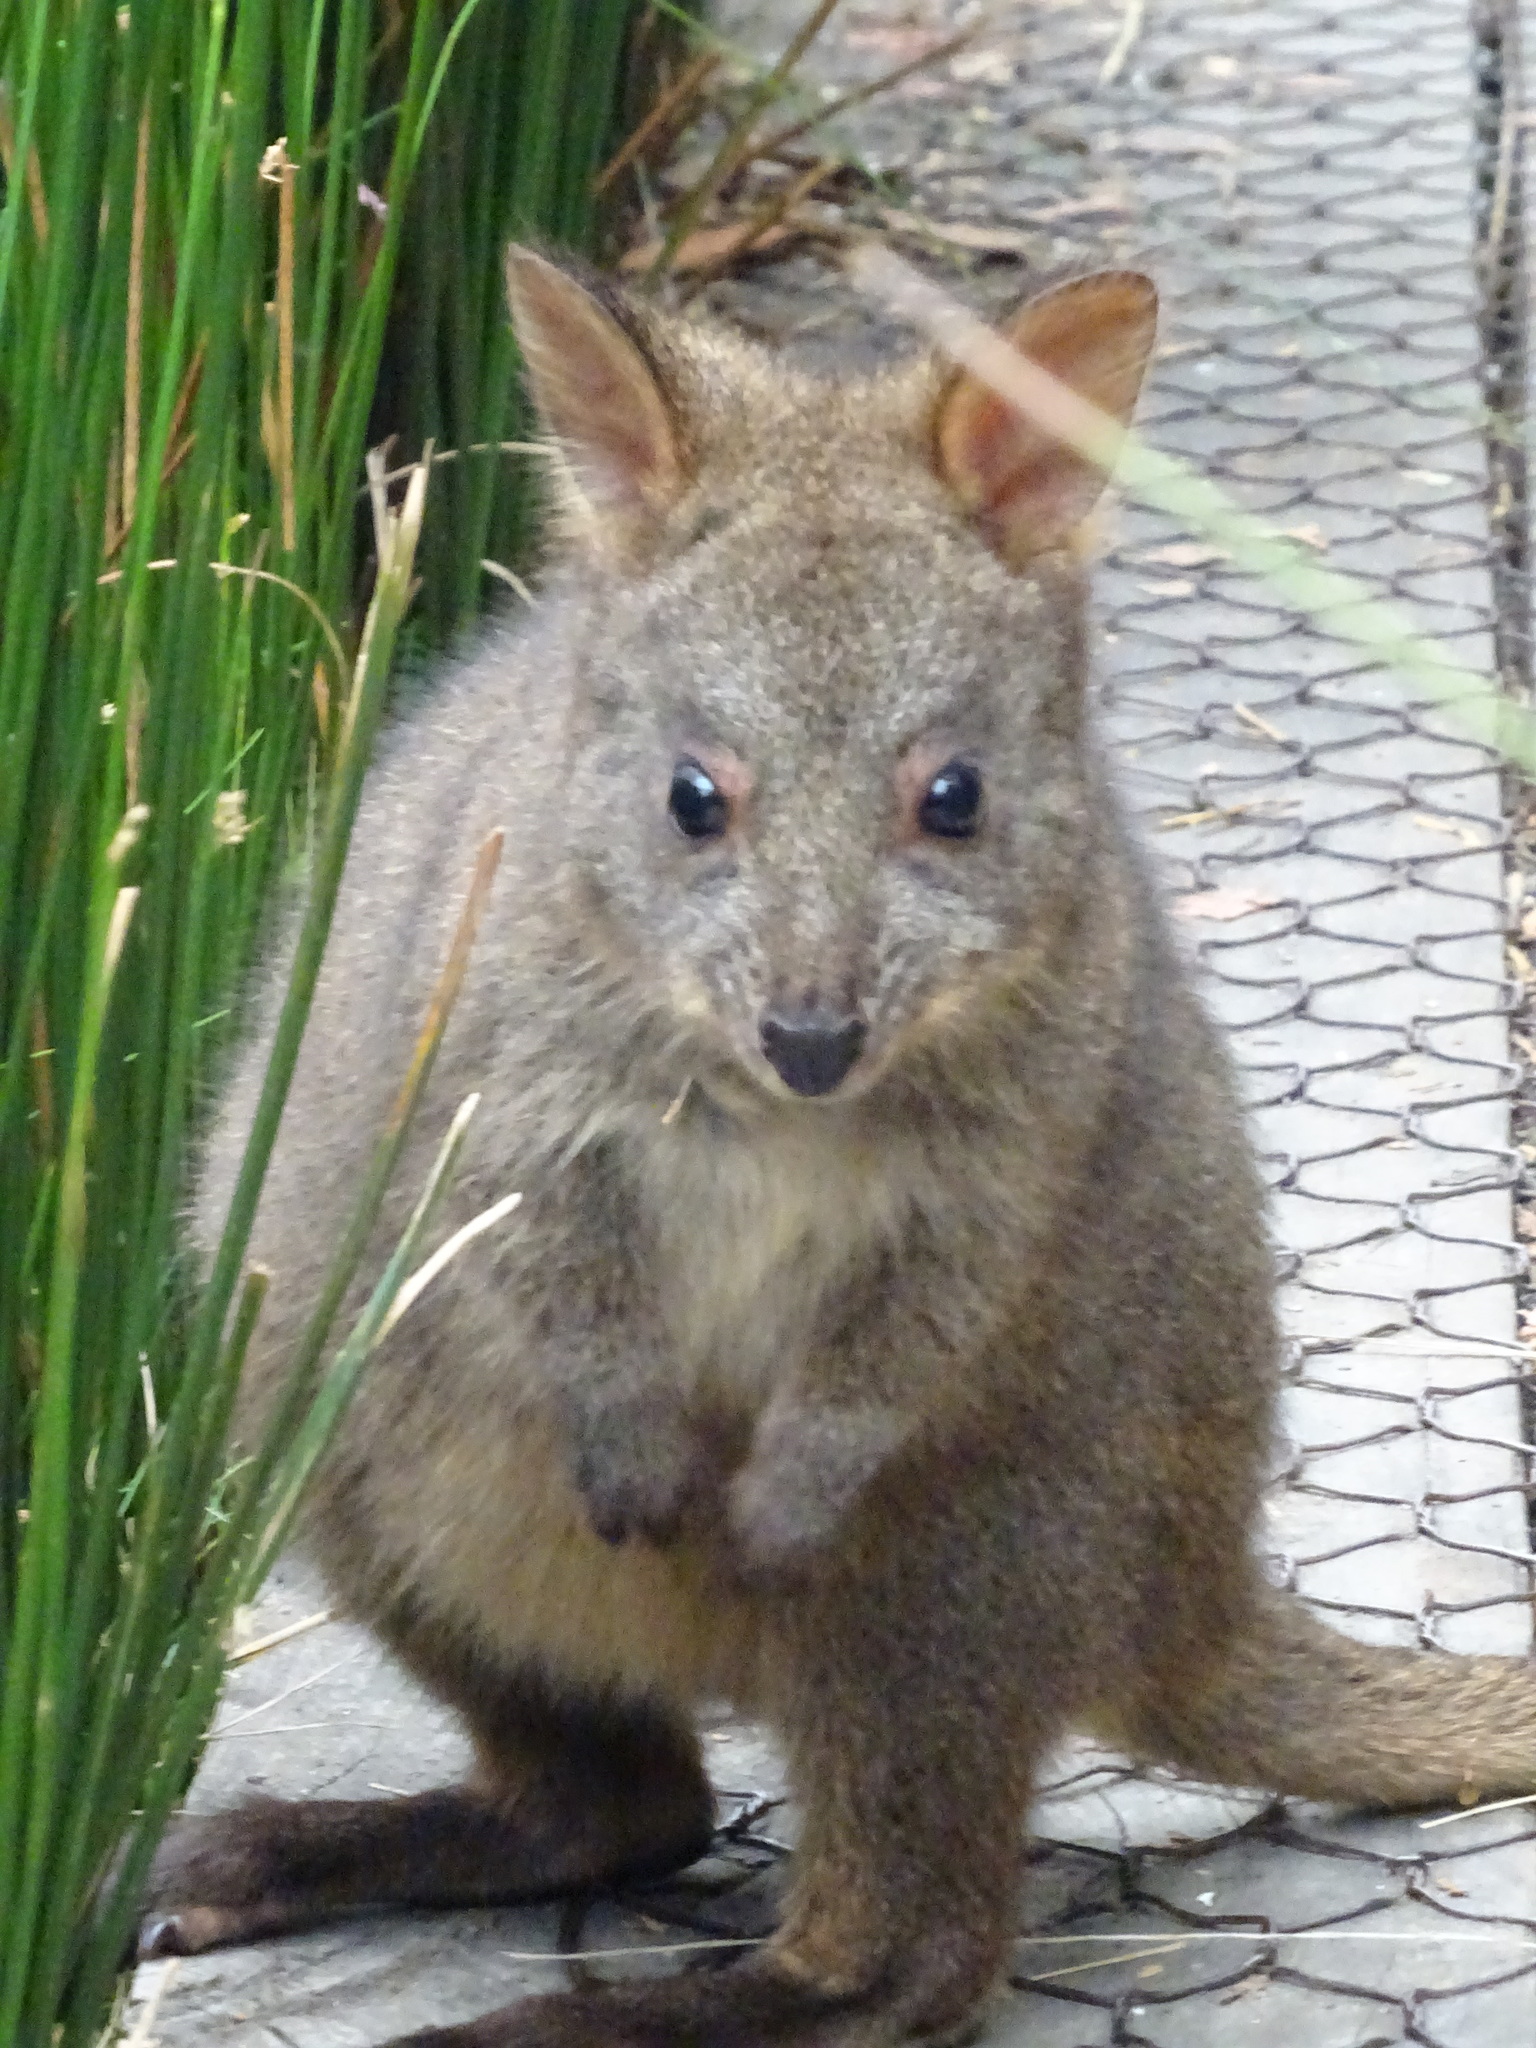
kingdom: Animalia
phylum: Chordata
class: Mammalia
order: Diprotodontia
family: Macropodidae
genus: Thylogale
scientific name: Thylogale billardierii
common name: Tasmanian pademelon
